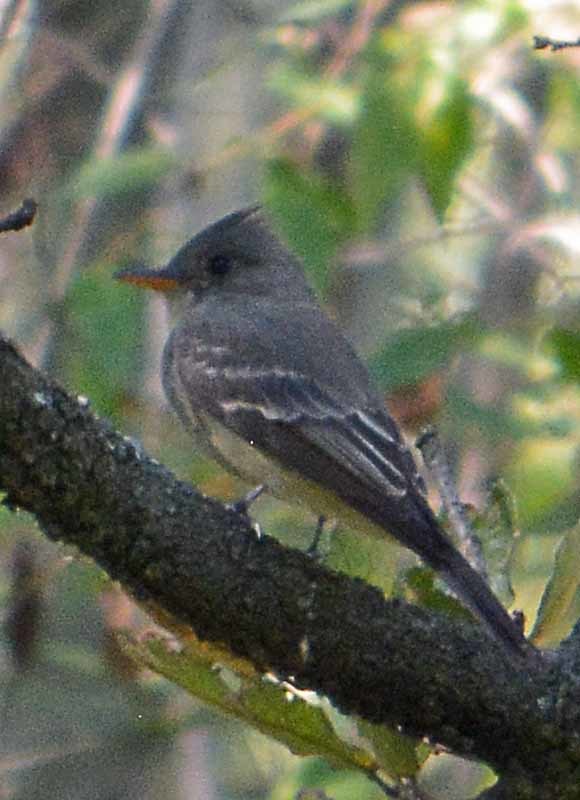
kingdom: Animalia
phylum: Chordata
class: Aves
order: Passeriformes
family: Tyrannidae
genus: Contopus
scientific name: Contopus pertinax
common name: Greater pewee
